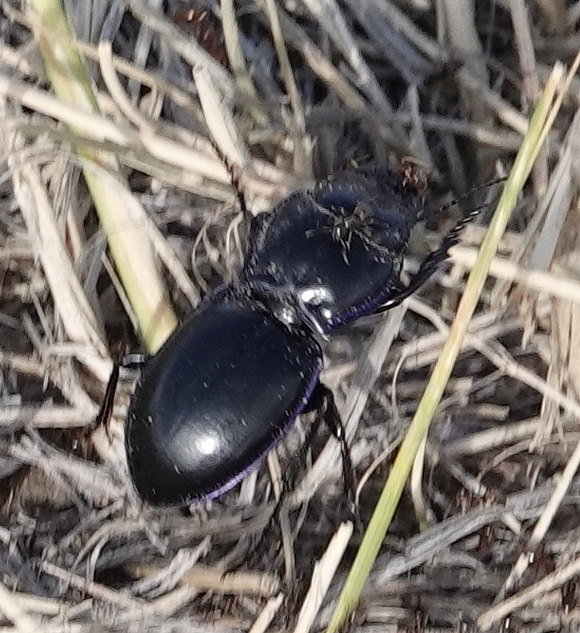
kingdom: Animalia
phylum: Arthropoda
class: Insecta
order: Coleoptera
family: Carabidae
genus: Pasimachus
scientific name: Pasimachus elongatus
